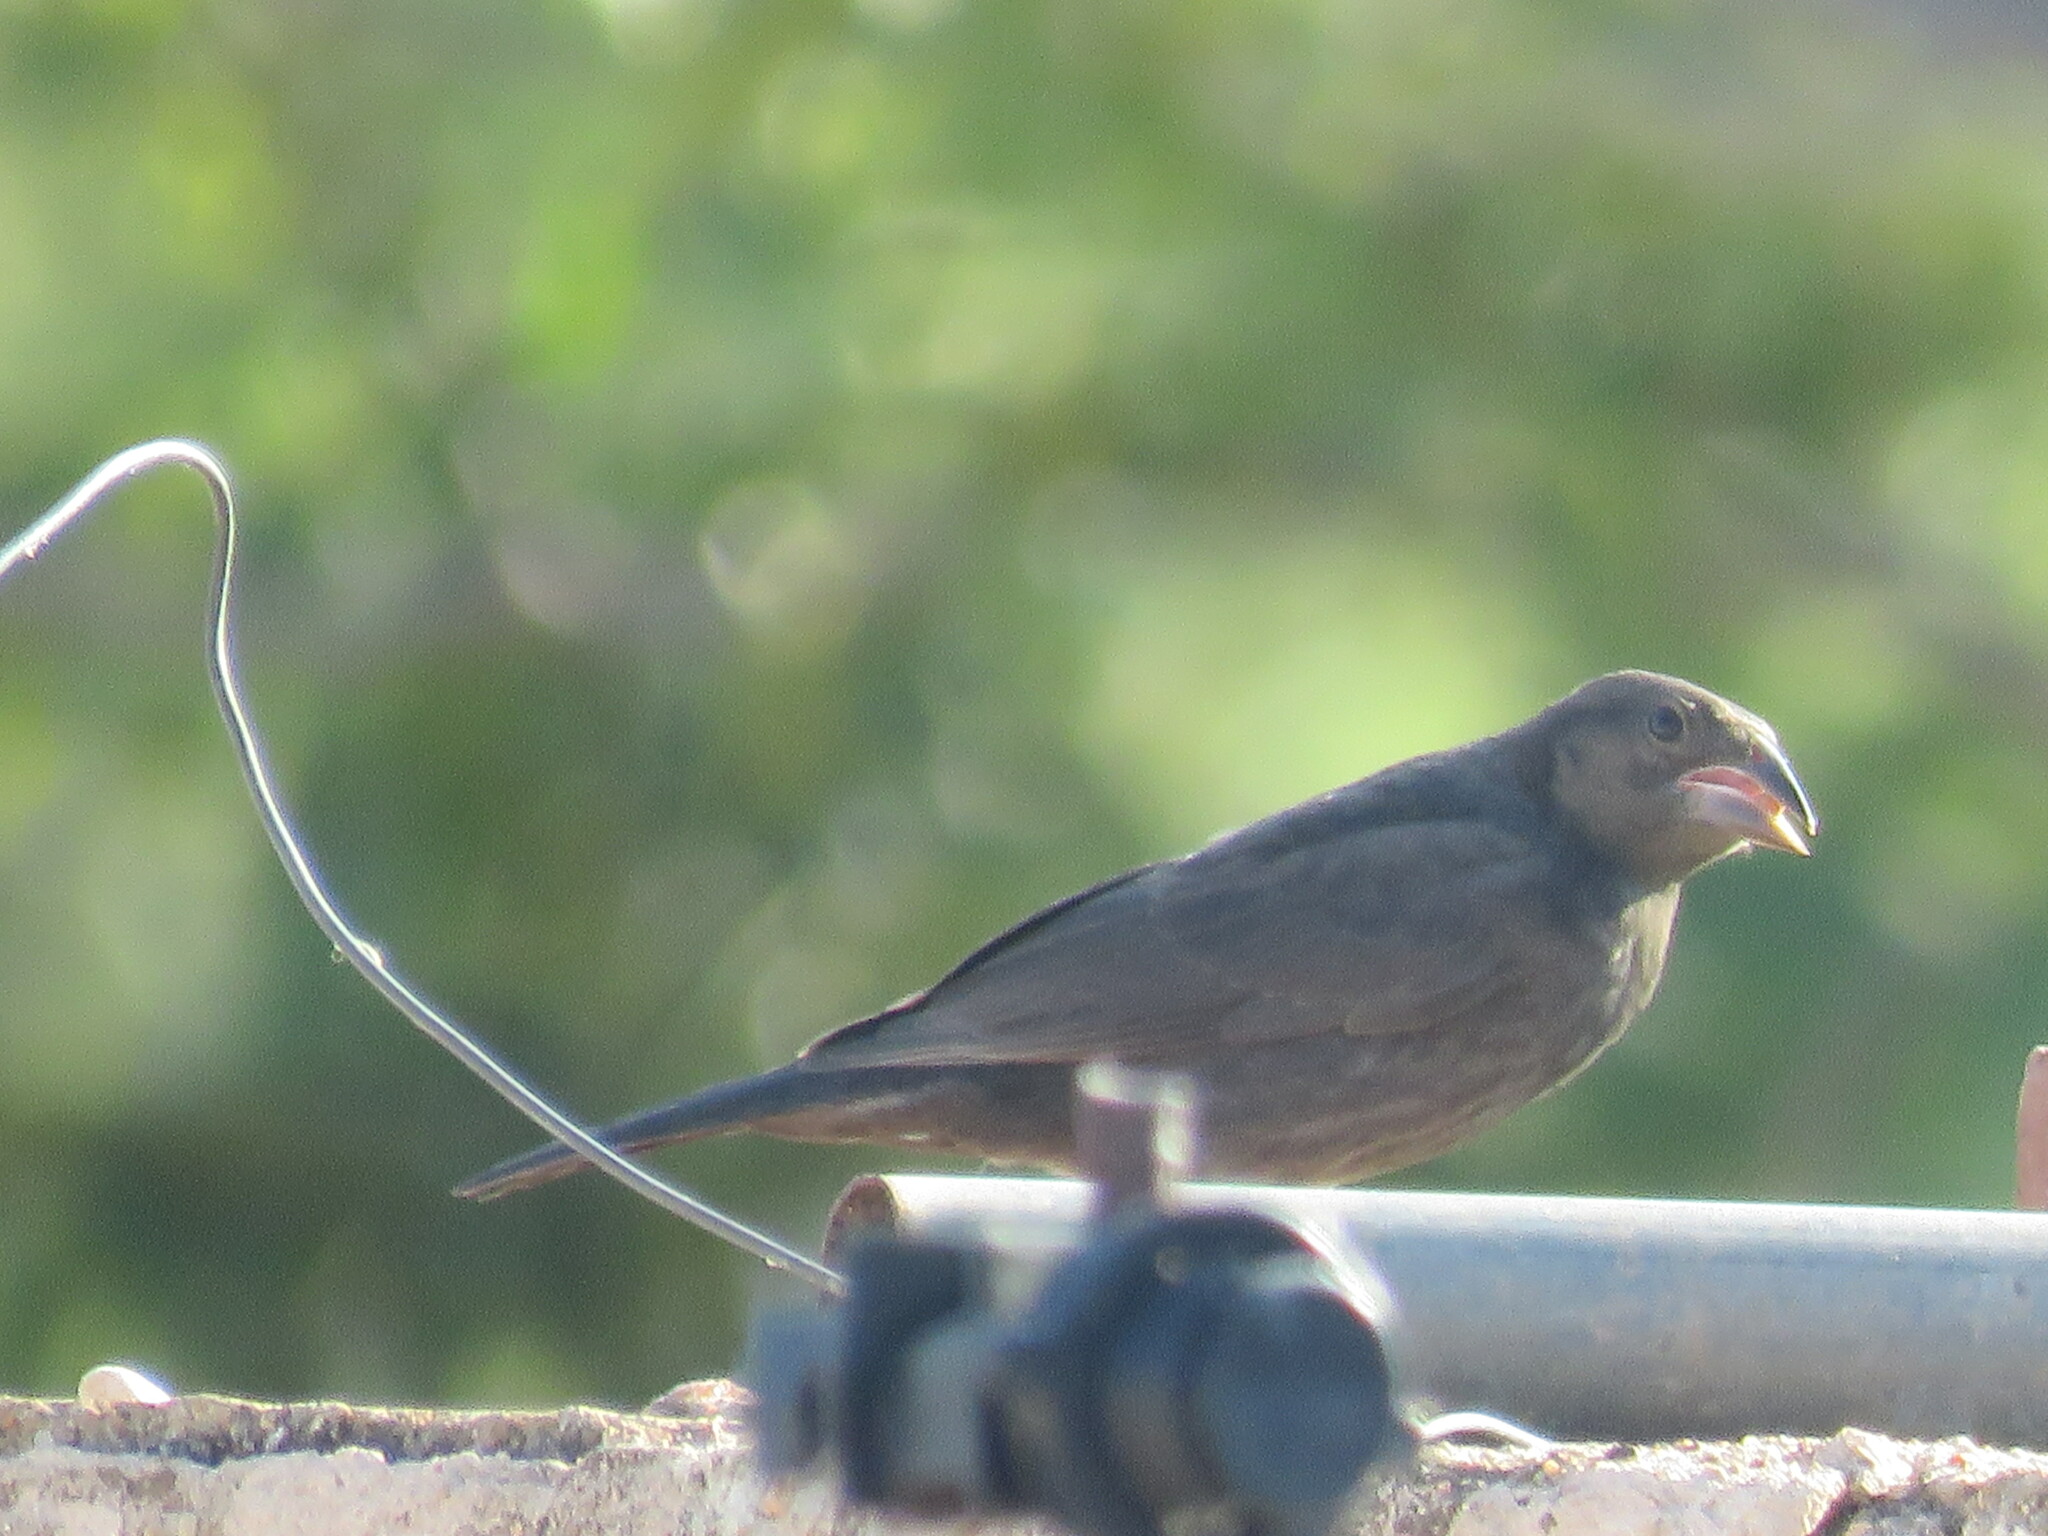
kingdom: Animalia
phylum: Chordata
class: Aves
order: Passeriformes
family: Icteridae
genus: Molothrus
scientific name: Molothrus aeneus
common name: Bronzed cowbird
